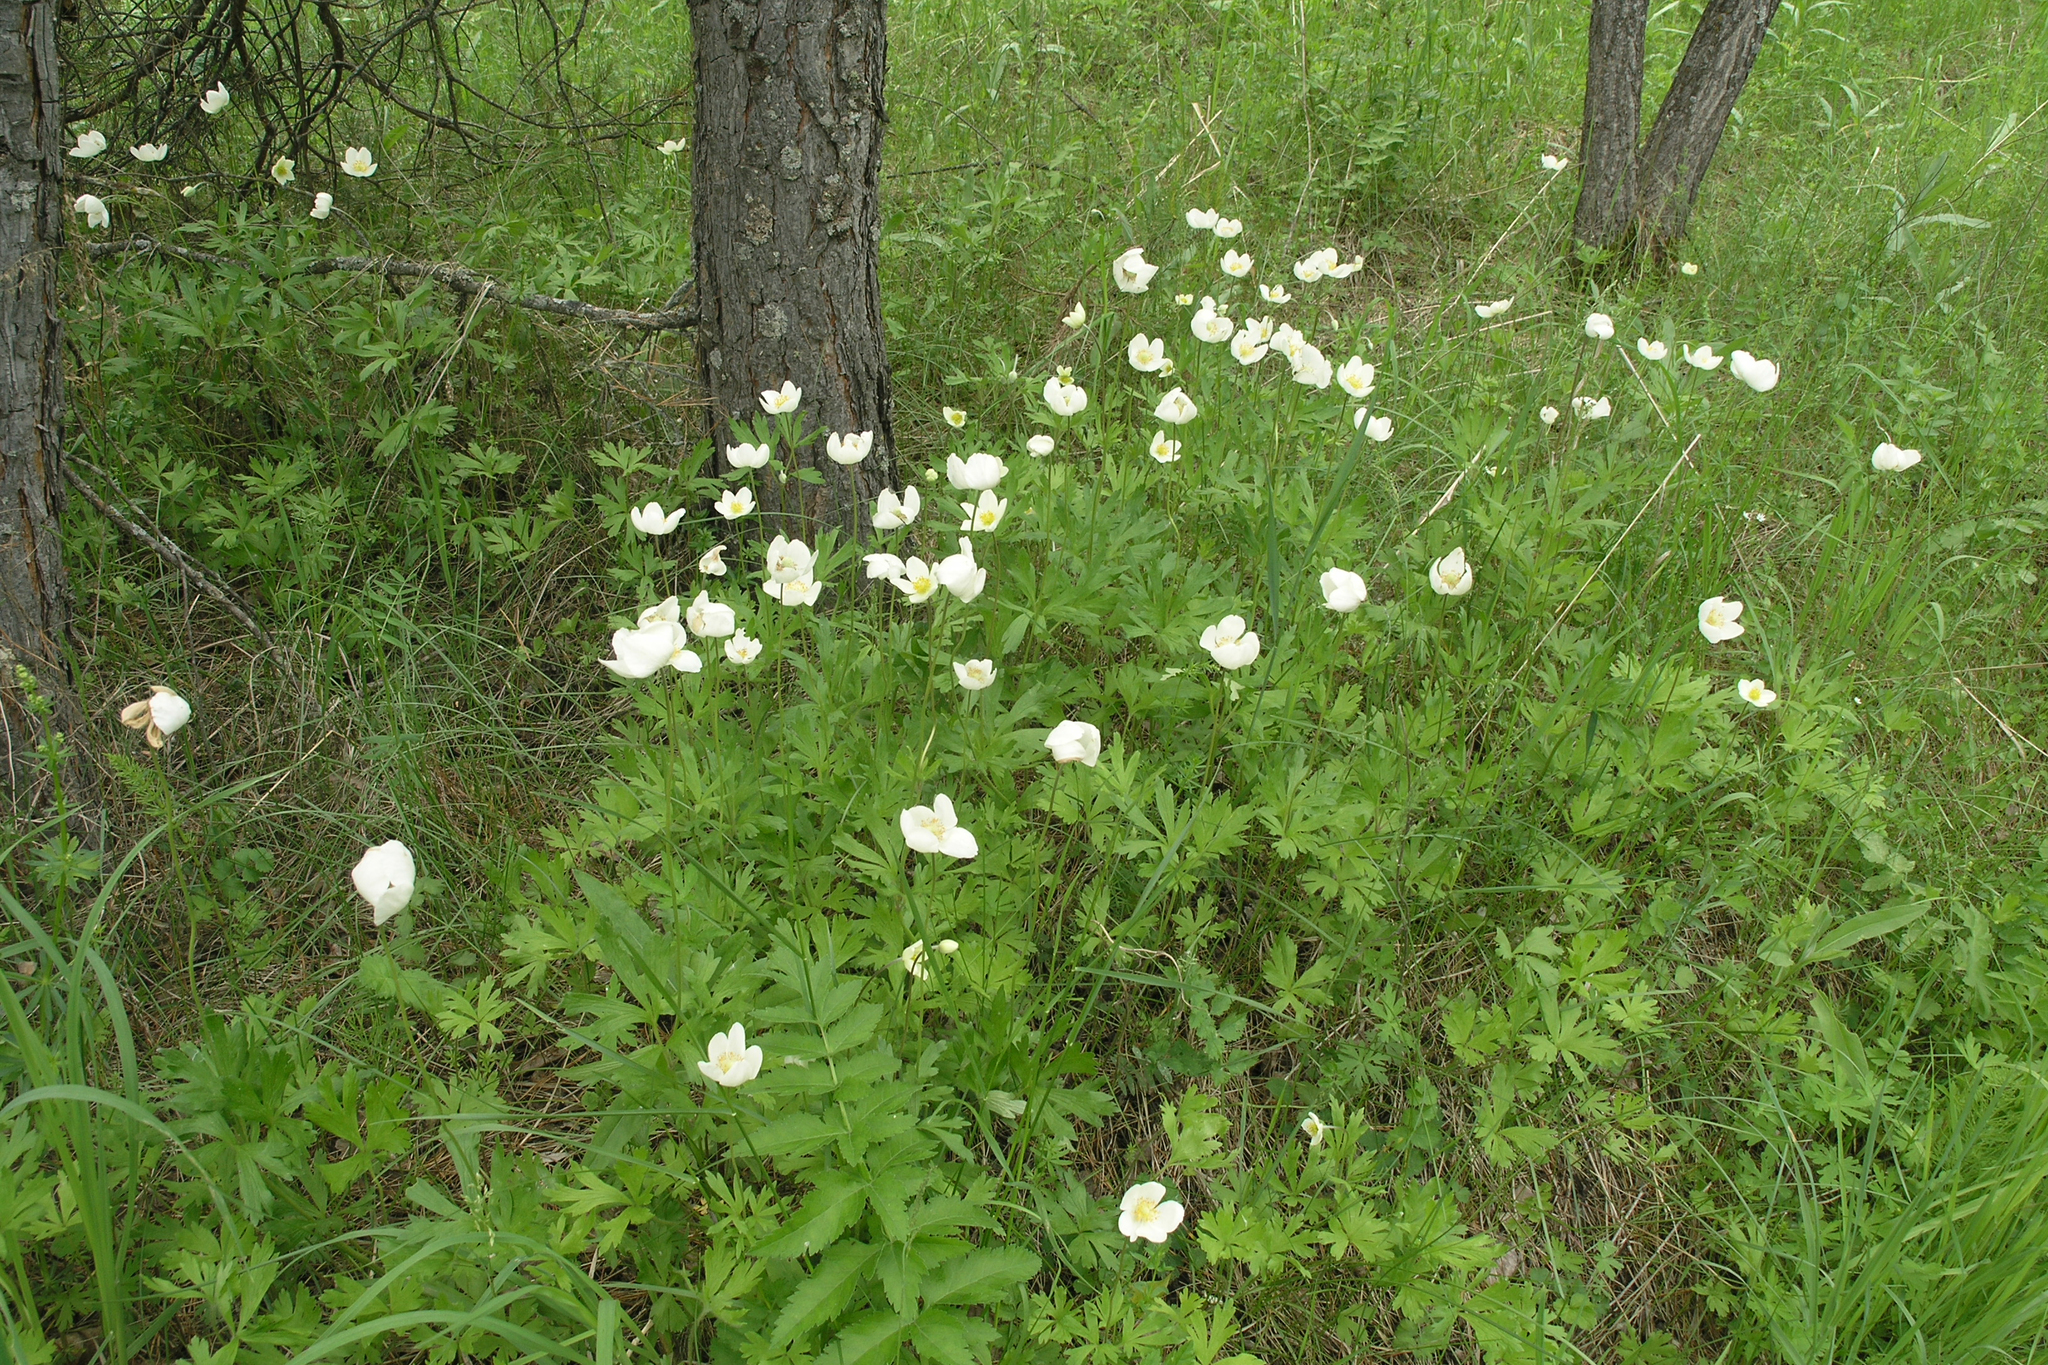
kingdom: Plantae
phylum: Tracheophyta
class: Magnoliopsida
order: Ranunculales
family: Ranunculaceae
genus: Anemone
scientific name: Anemone sylvestris
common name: Snowdrop anemone
